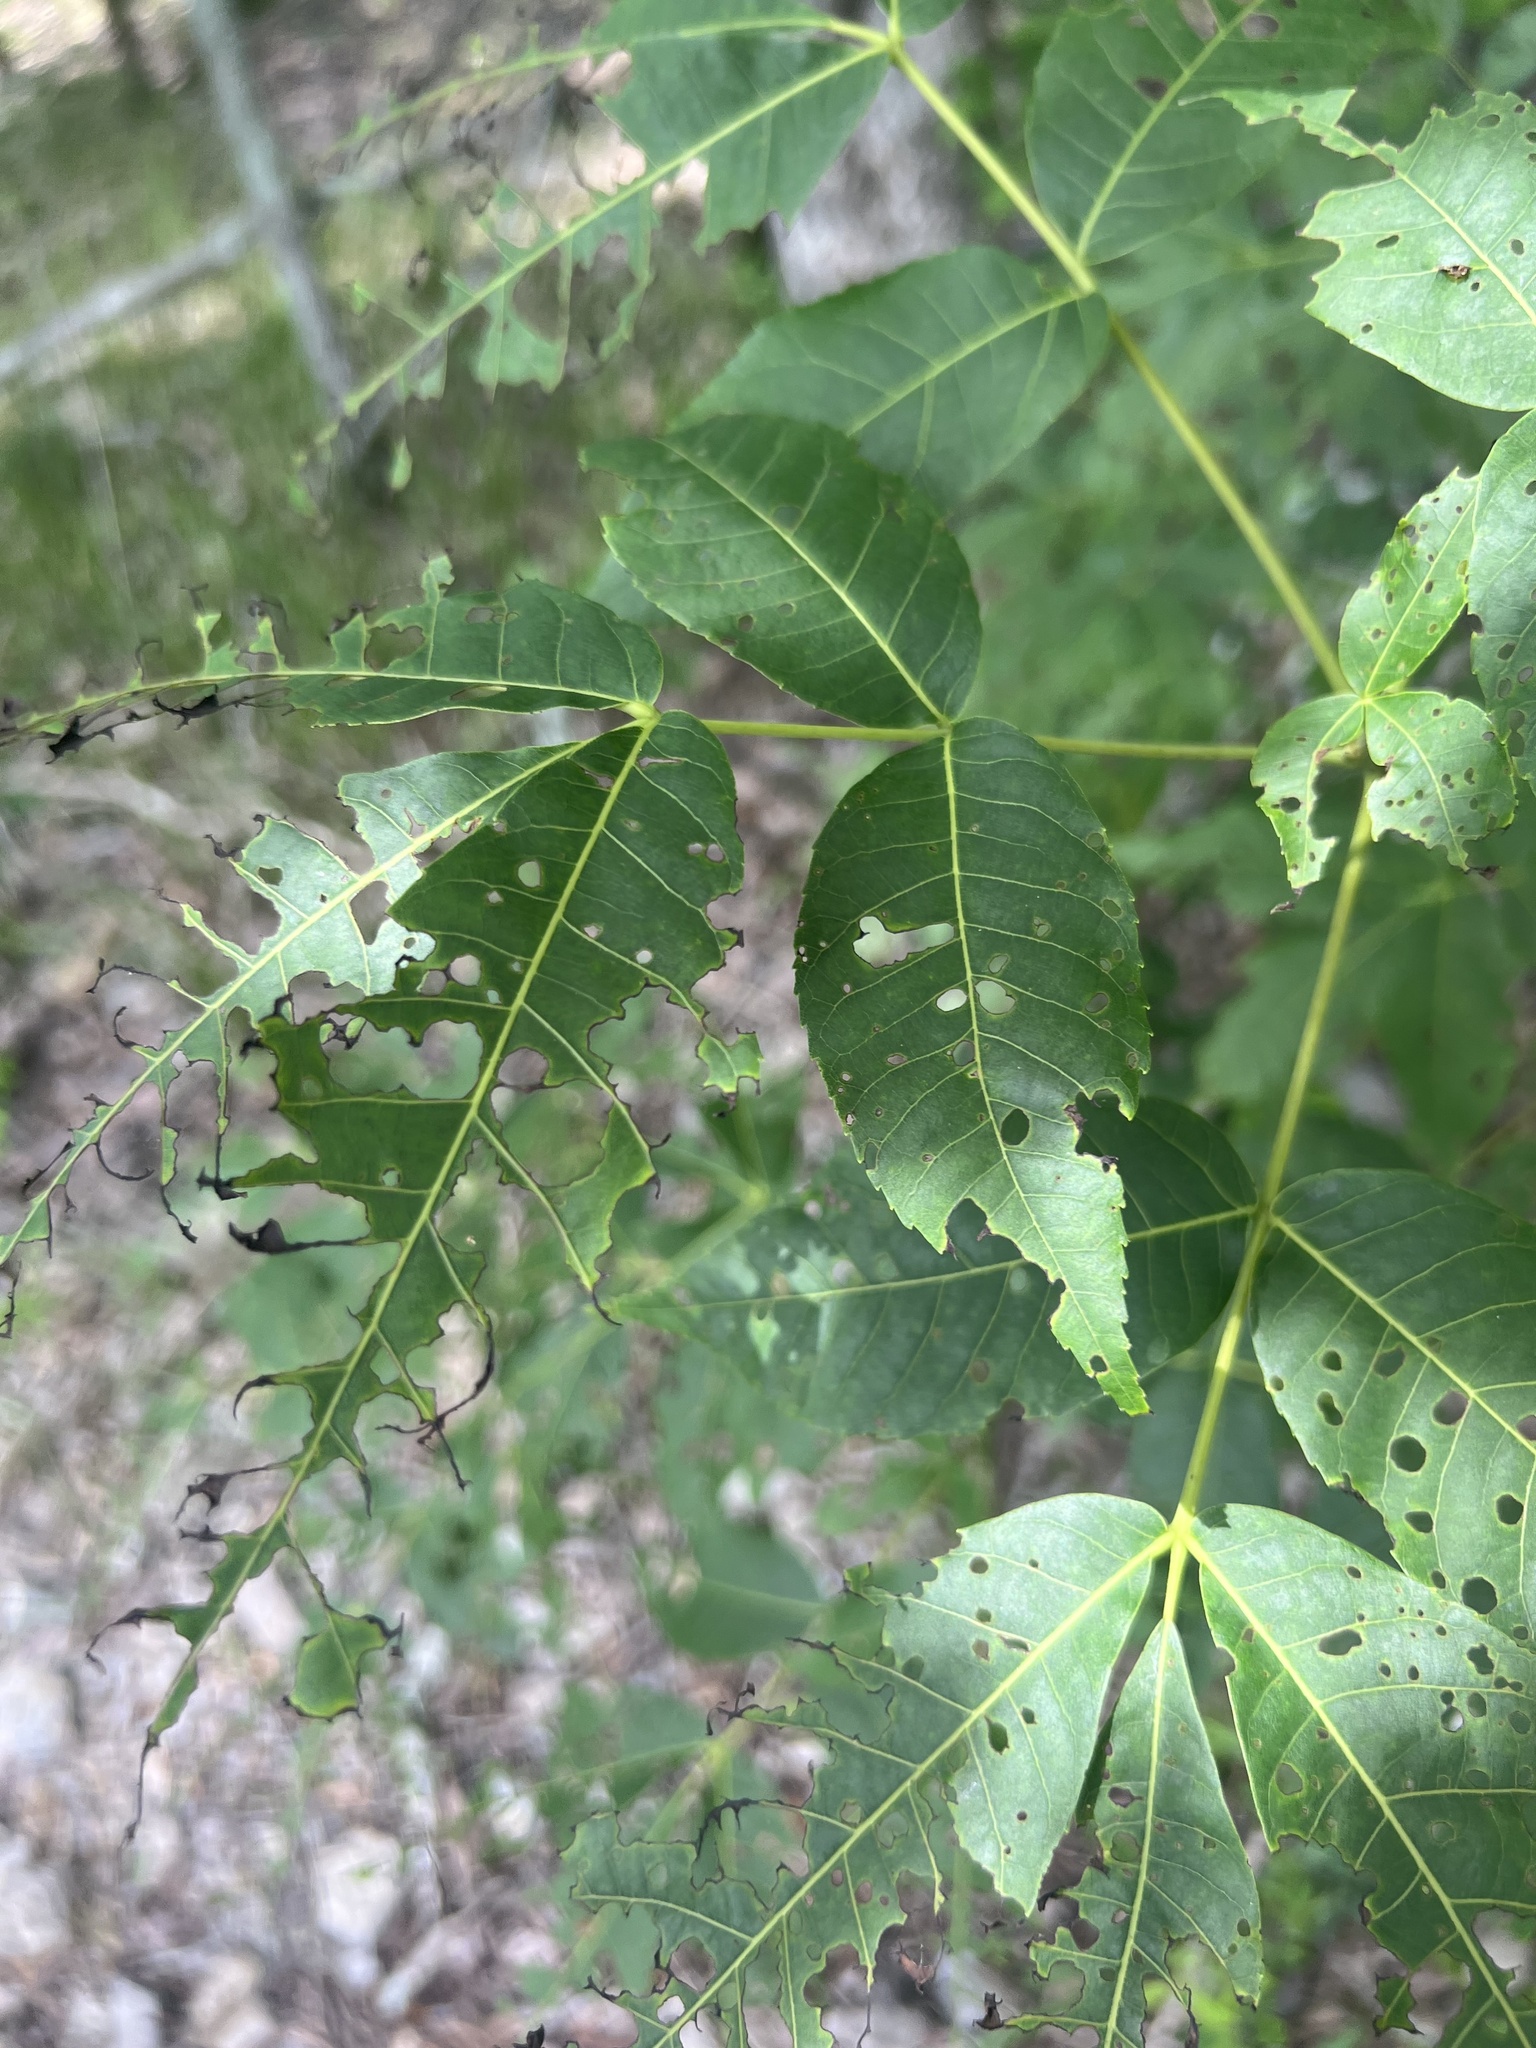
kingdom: Plantae
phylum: Tracheophyta
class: Magnoliopsida
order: Fagales
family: Juglandaceae
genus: Carya
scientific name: Carya carolinae-septentrionalis
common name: Carolina hickory
